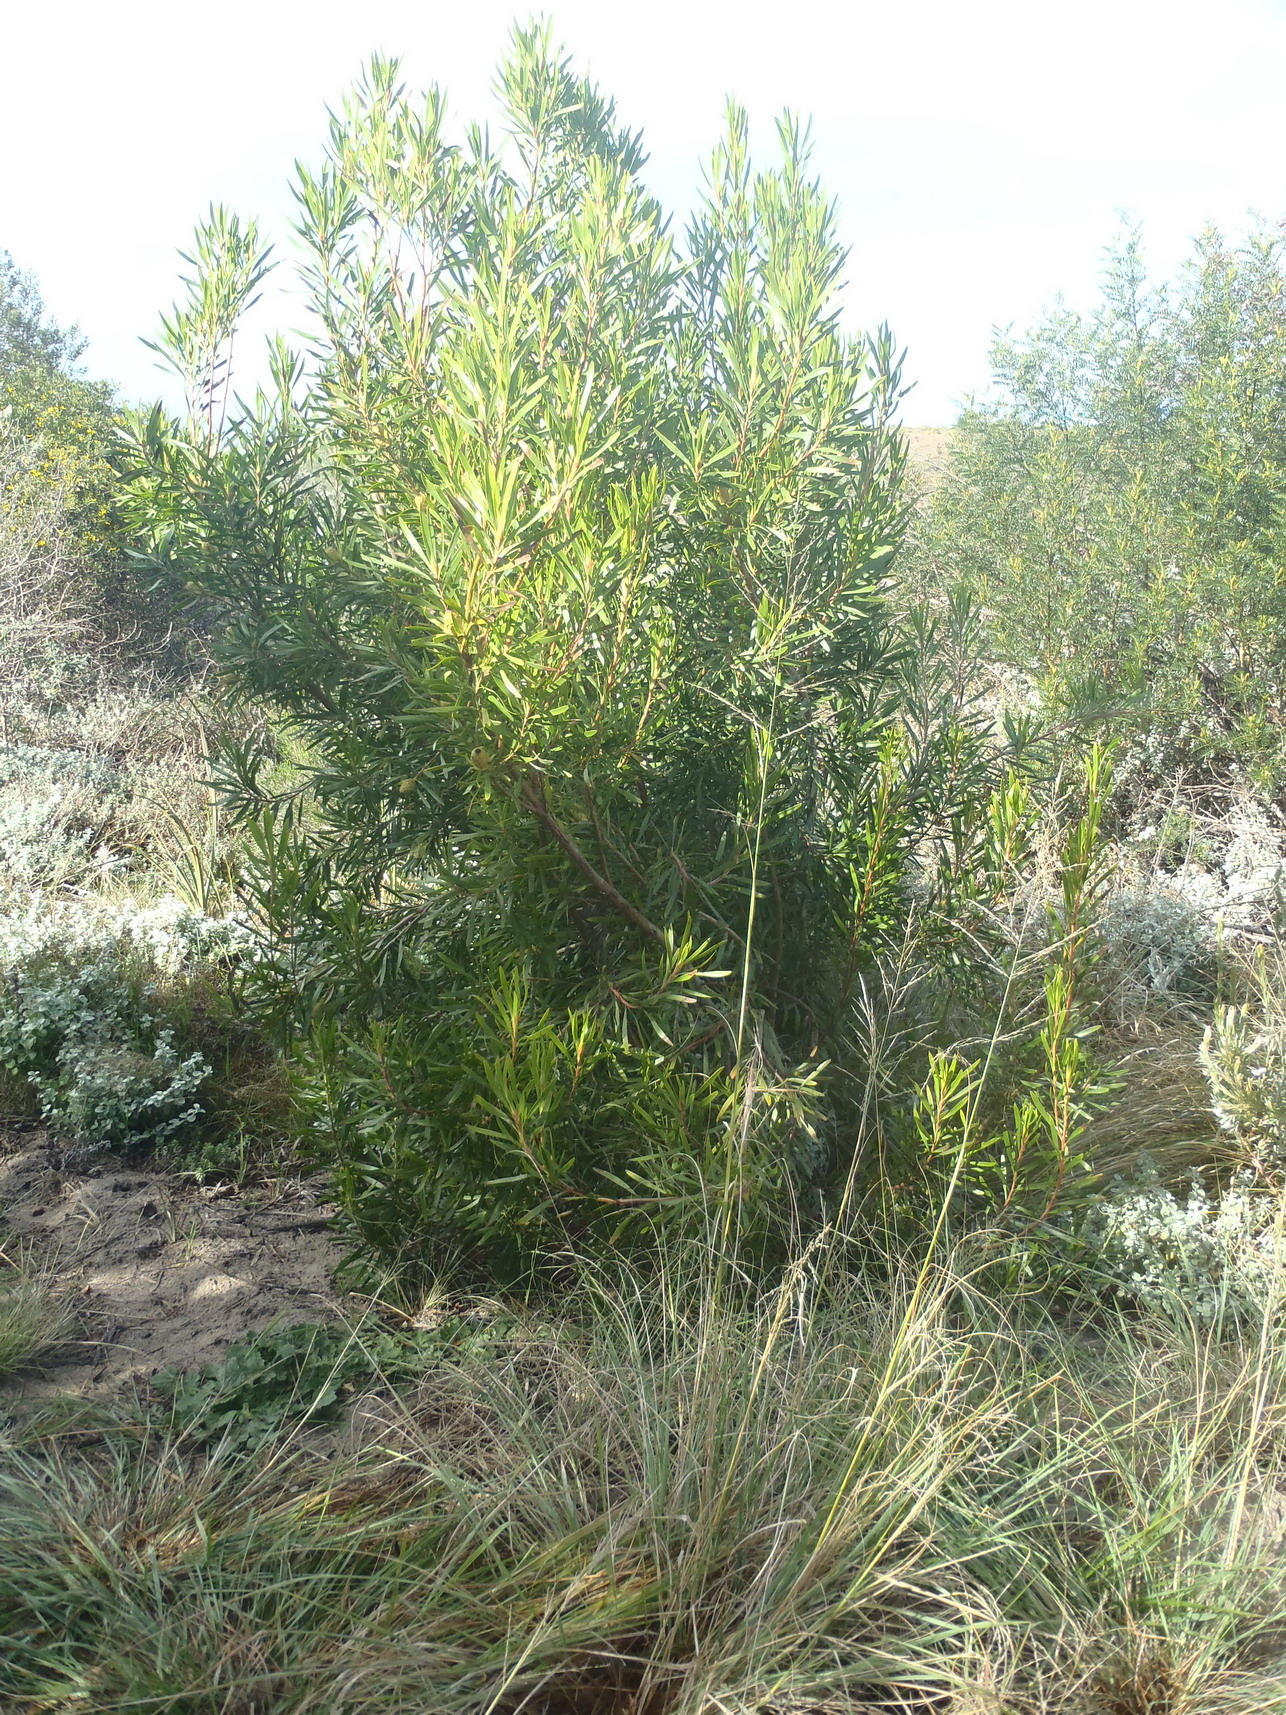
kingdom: Plantae
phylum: Tracheophyta
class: Magnoliopsida
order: Proteales
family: Proteaceae
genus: Leucadendron
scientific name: Leucadendron eucalyptifolium
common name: Gum-leaved conebush
